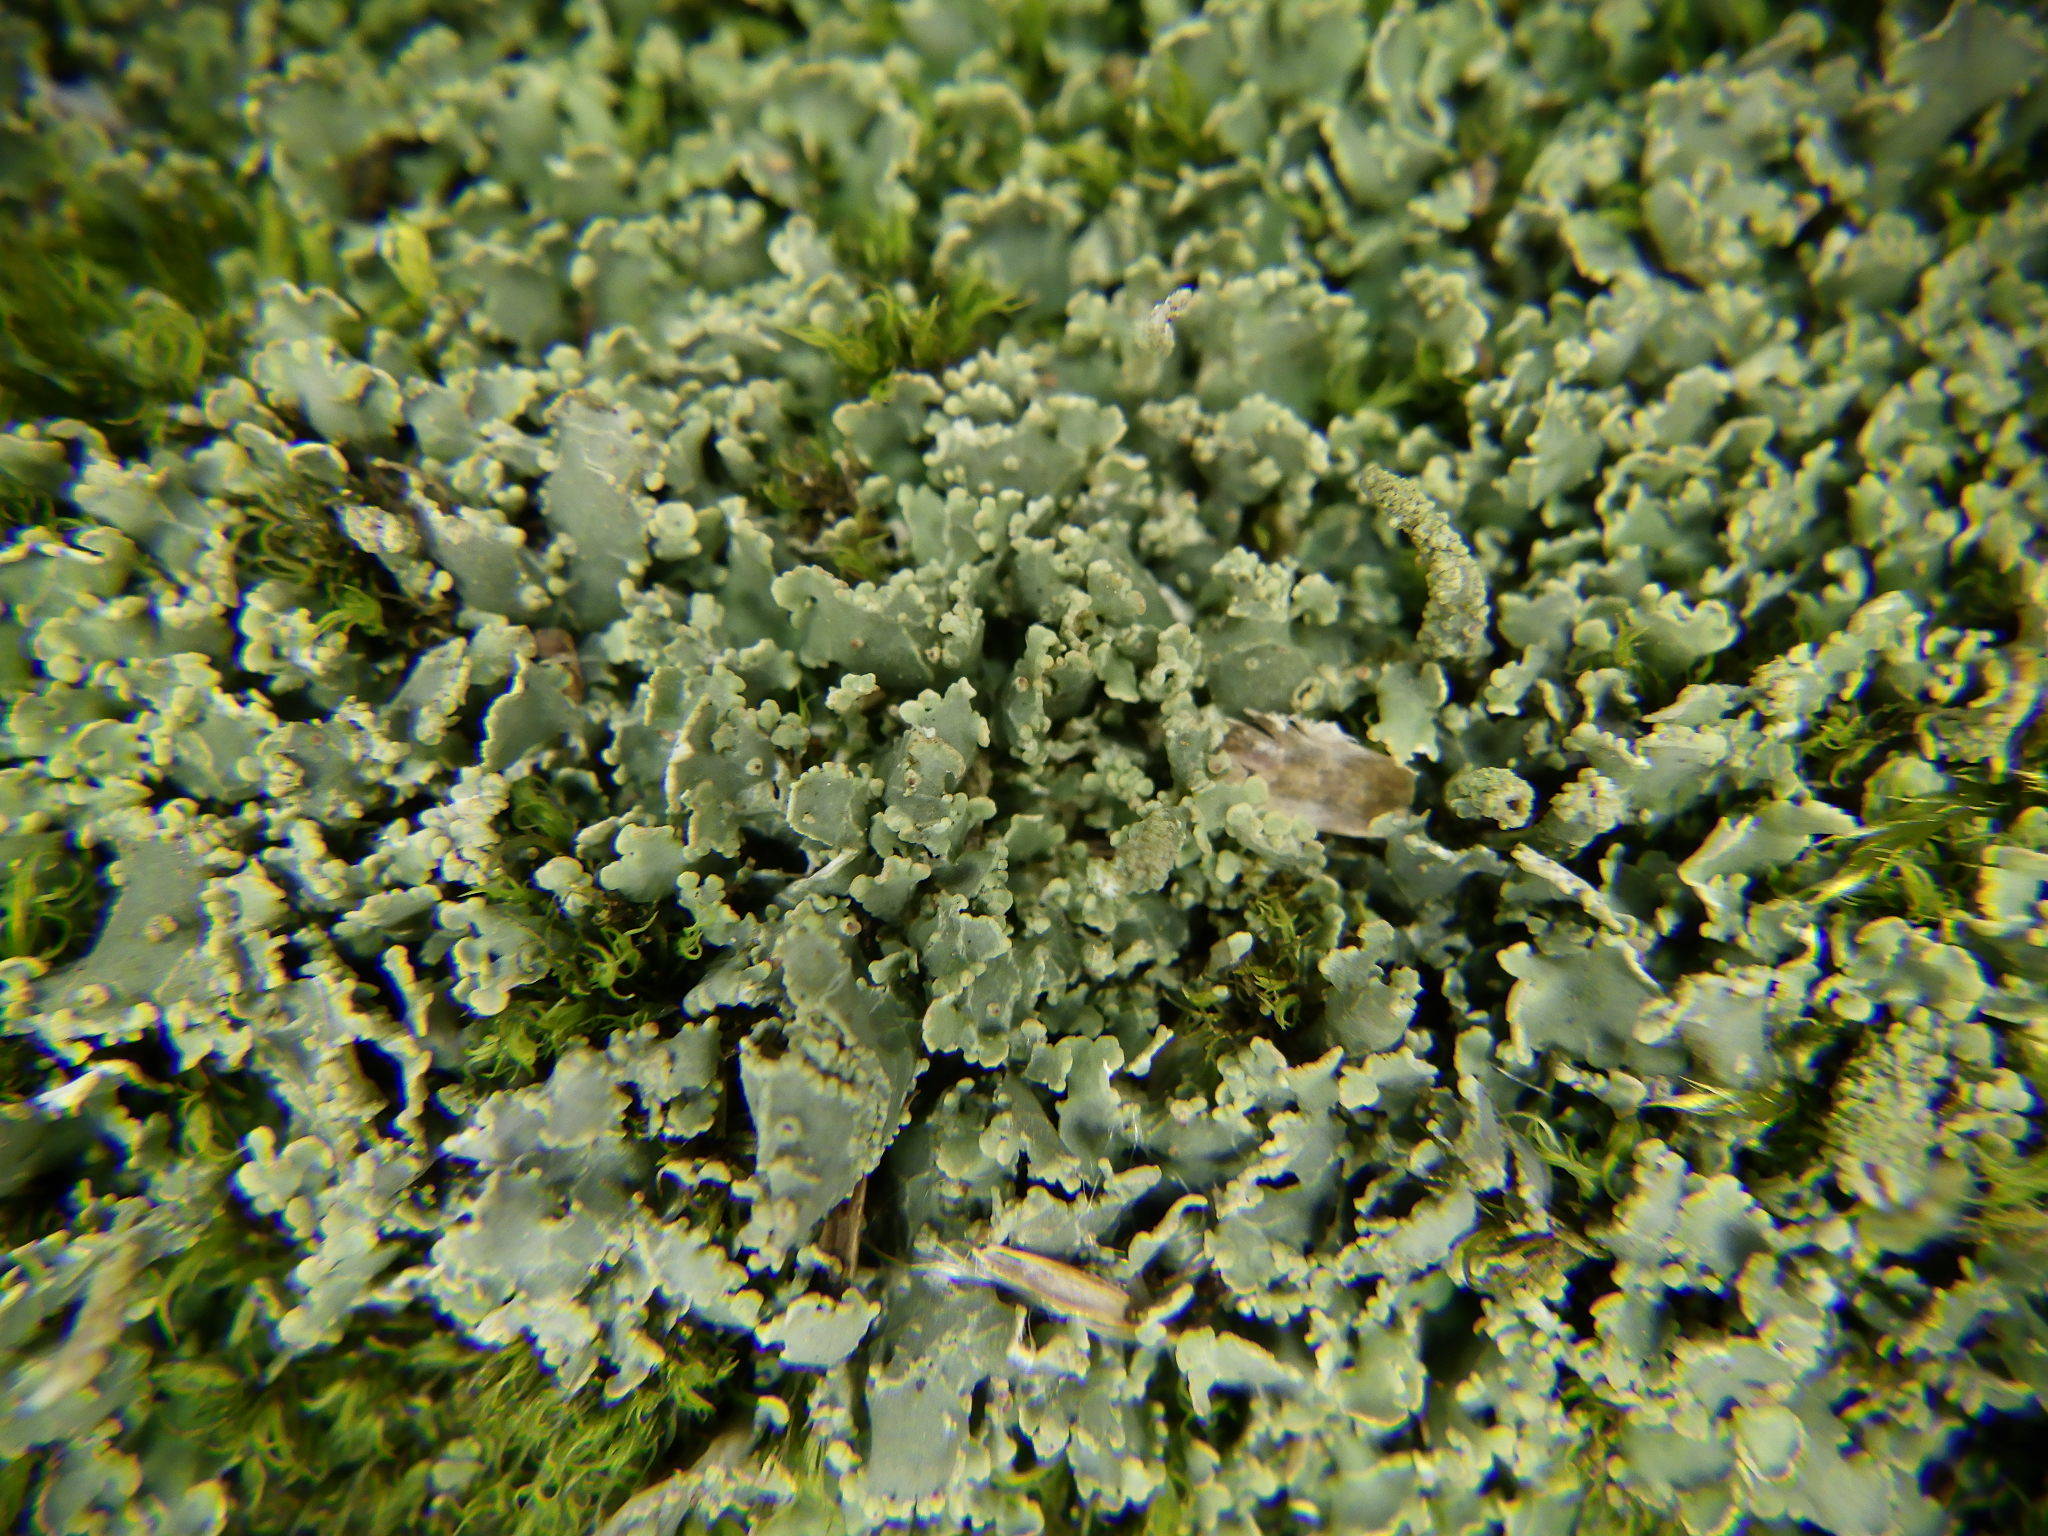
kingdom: Fungi
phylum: Ascomycota
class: Lecanoromycetes
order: Lecanorales
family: Cladoniaceae
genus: Cladonia
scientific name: Cladonia coniocraea
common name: Common powderhorn
